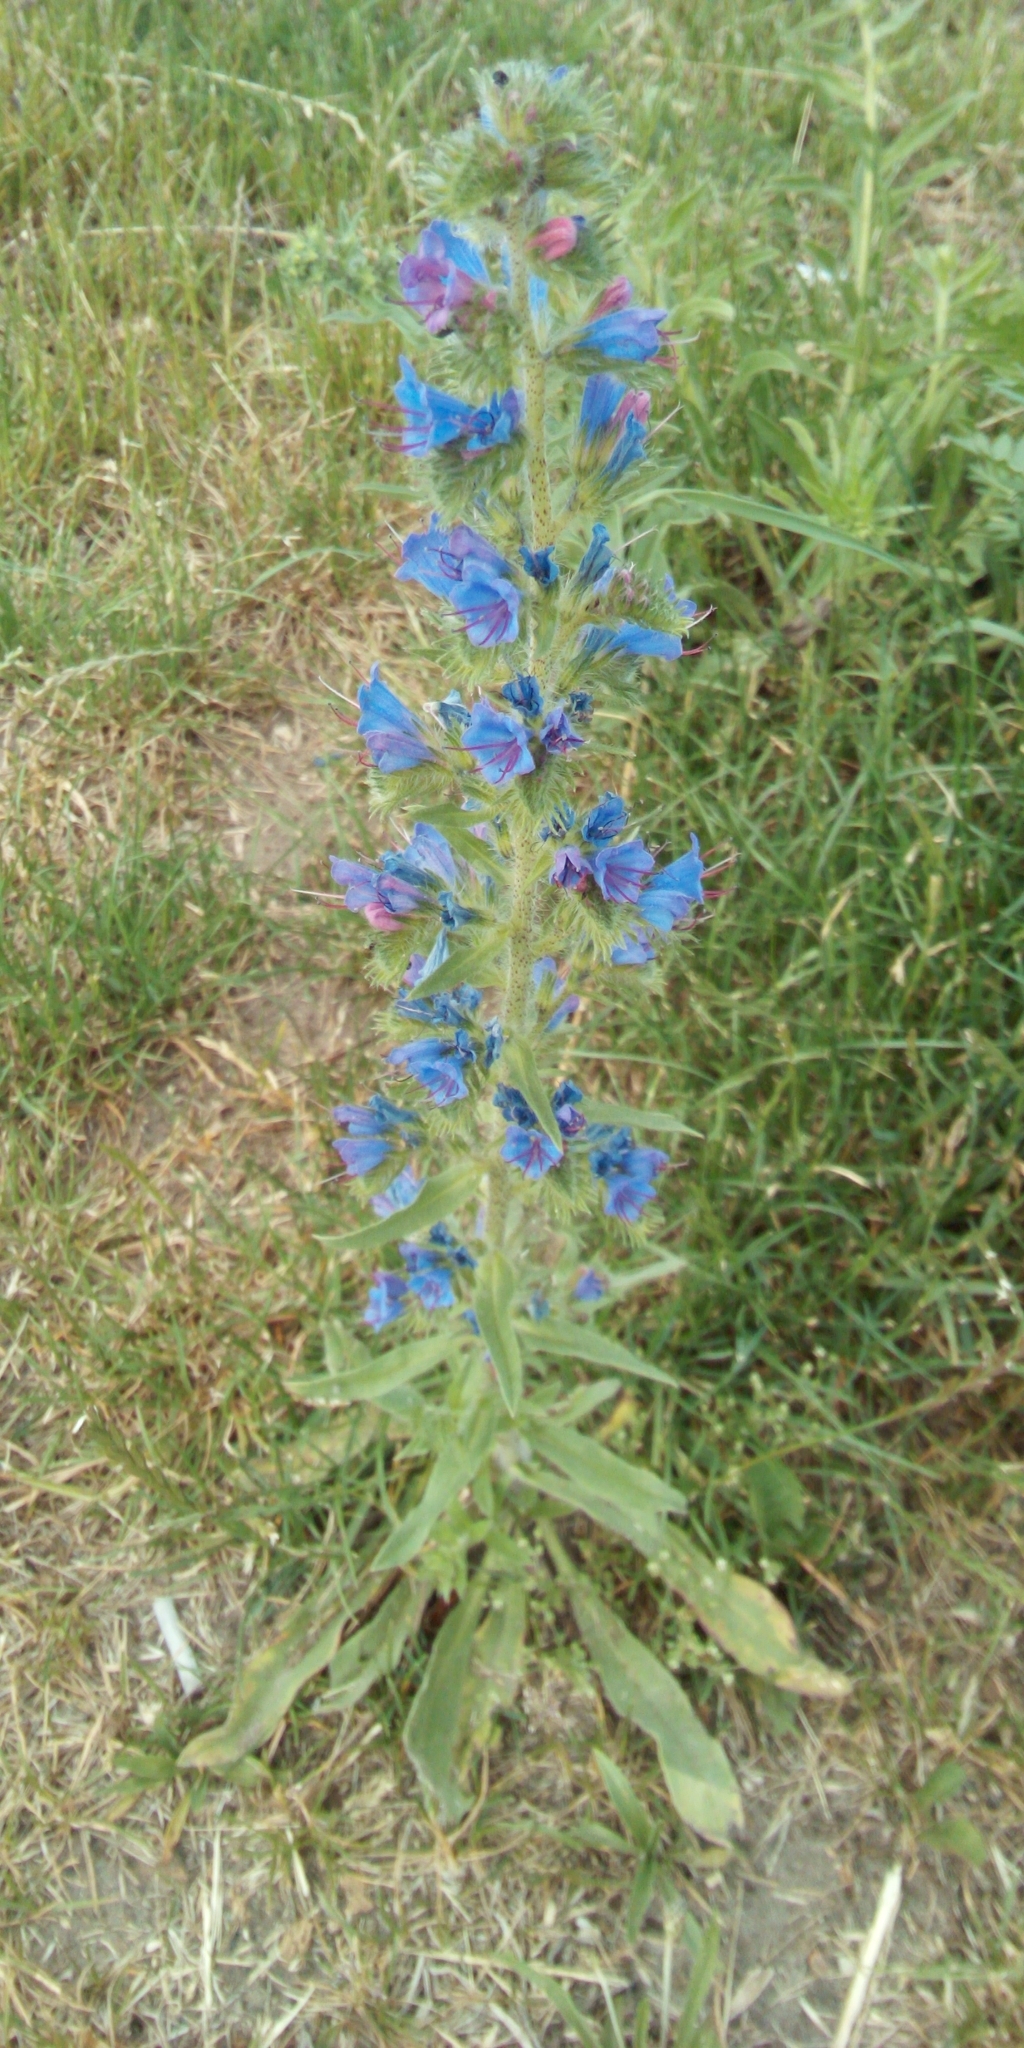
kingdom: Plantae
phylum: Tracheophyta
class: Magnoliopsida
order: Boraginales
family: Boraginaceae
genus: Echium
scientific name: Echium vulgare
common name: Common viper's bugloss
